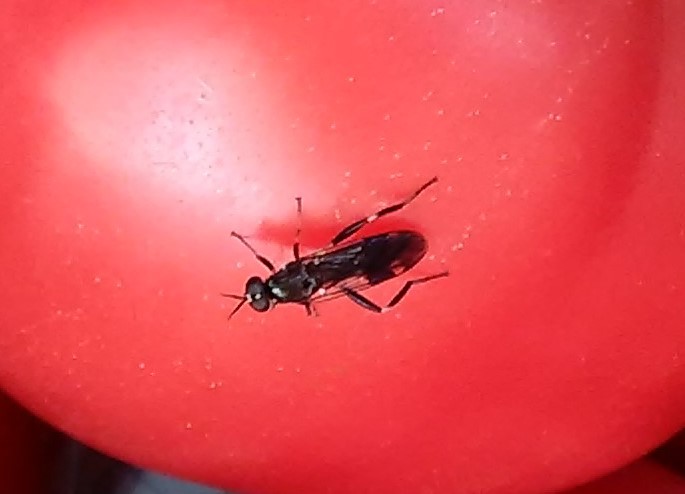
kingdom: Animalia
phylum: Arthropoda
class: Insecta
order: Diptera
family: Stratiomyidae
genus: Exaireta
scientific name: Exaireta spinigera
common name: Blue soldier fly
